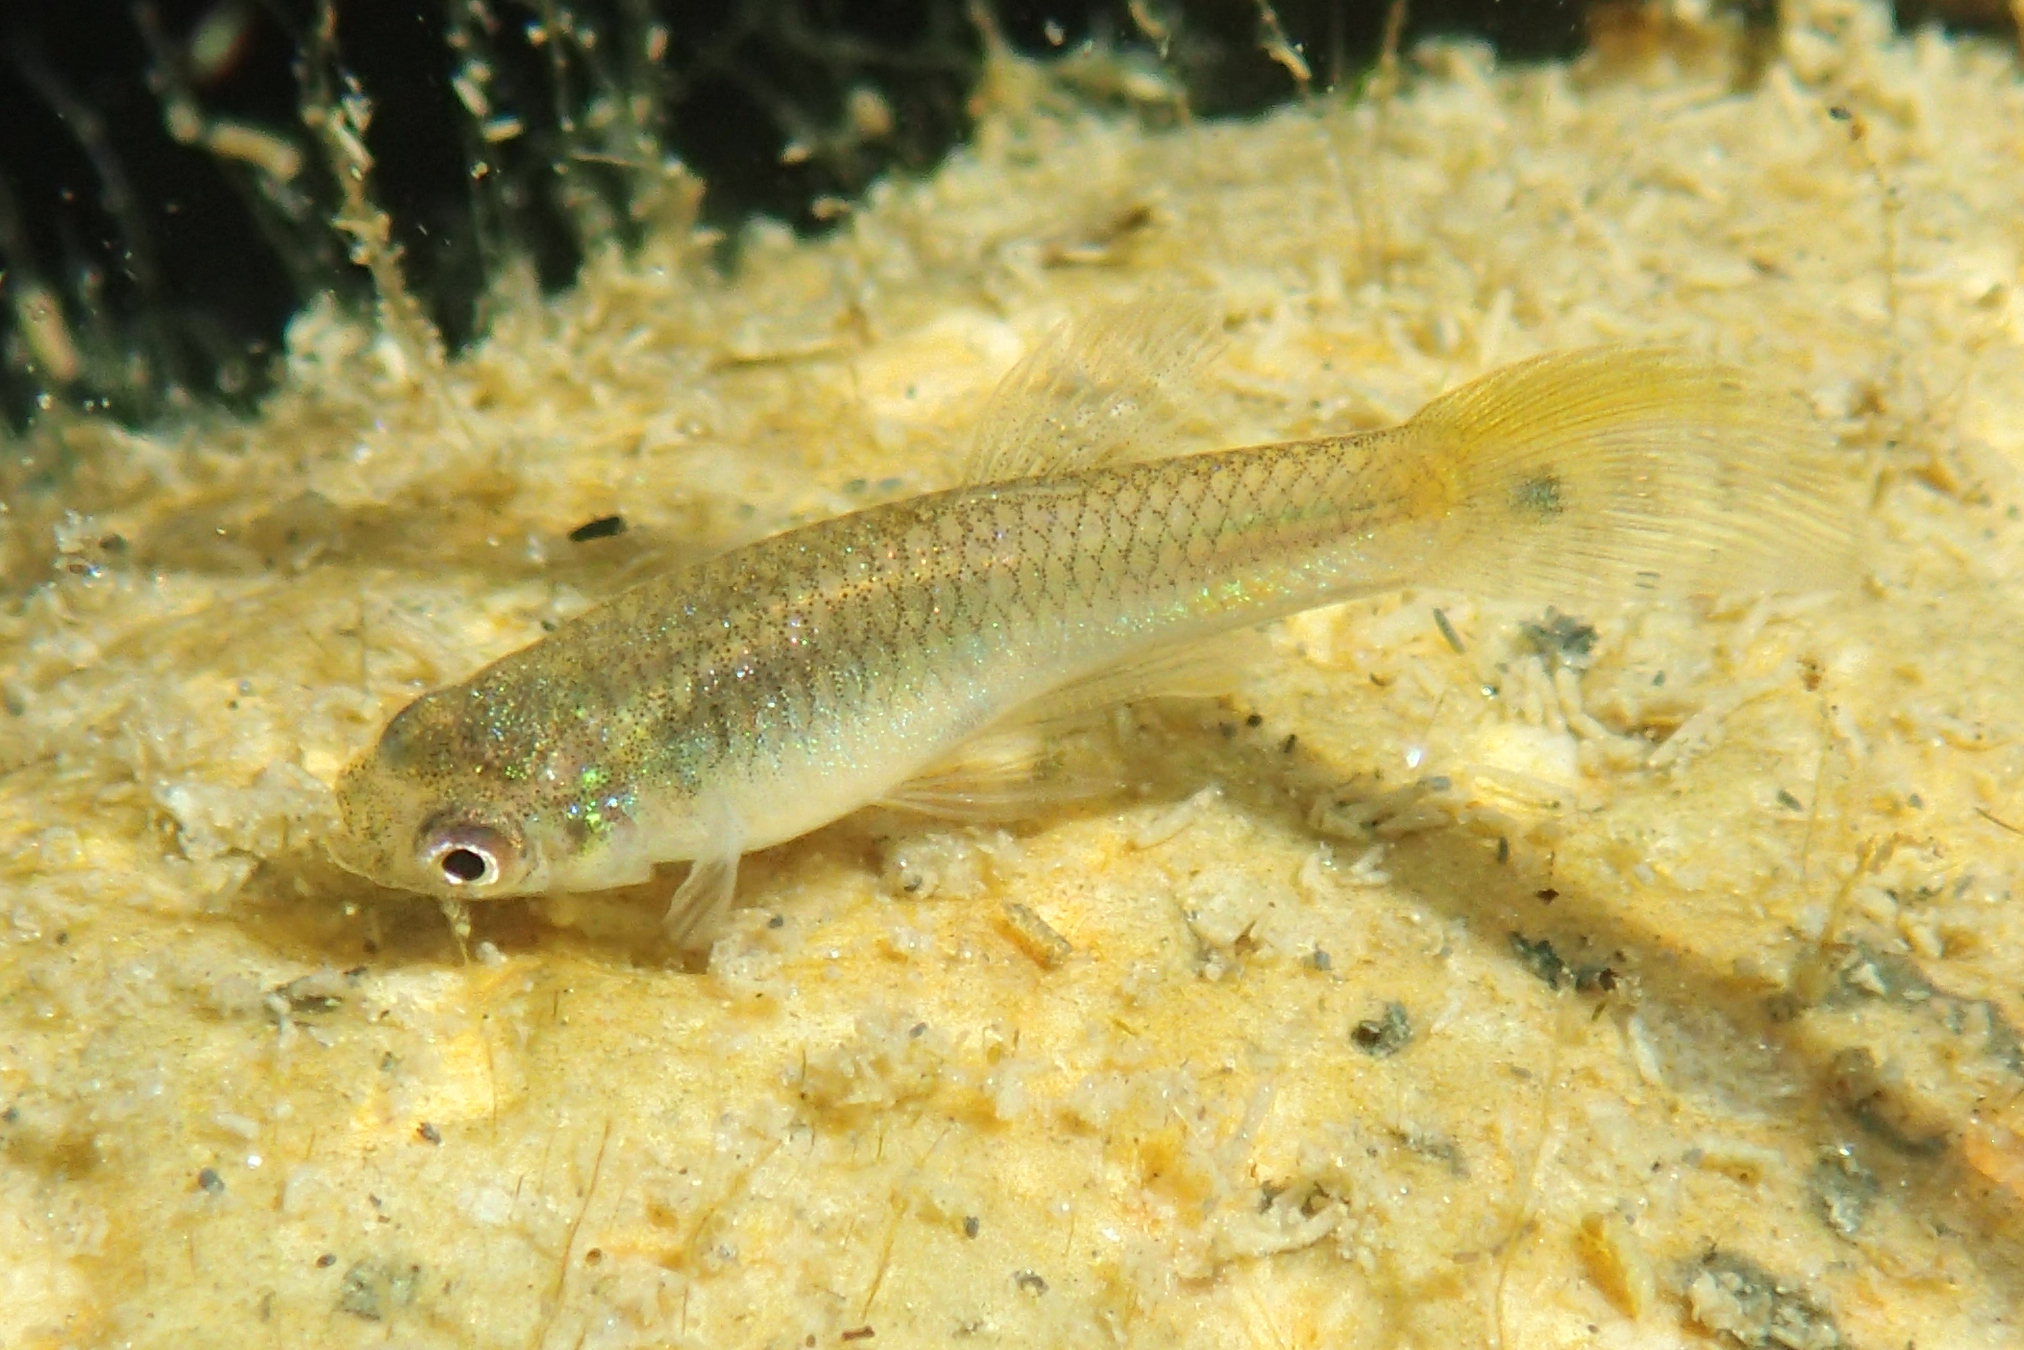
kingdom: Animalia
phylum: Chordata
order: Cyprinodontiformes
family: Poeciliidae
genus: Poecilia
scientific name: Poecilia reticulata
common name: Guppy
